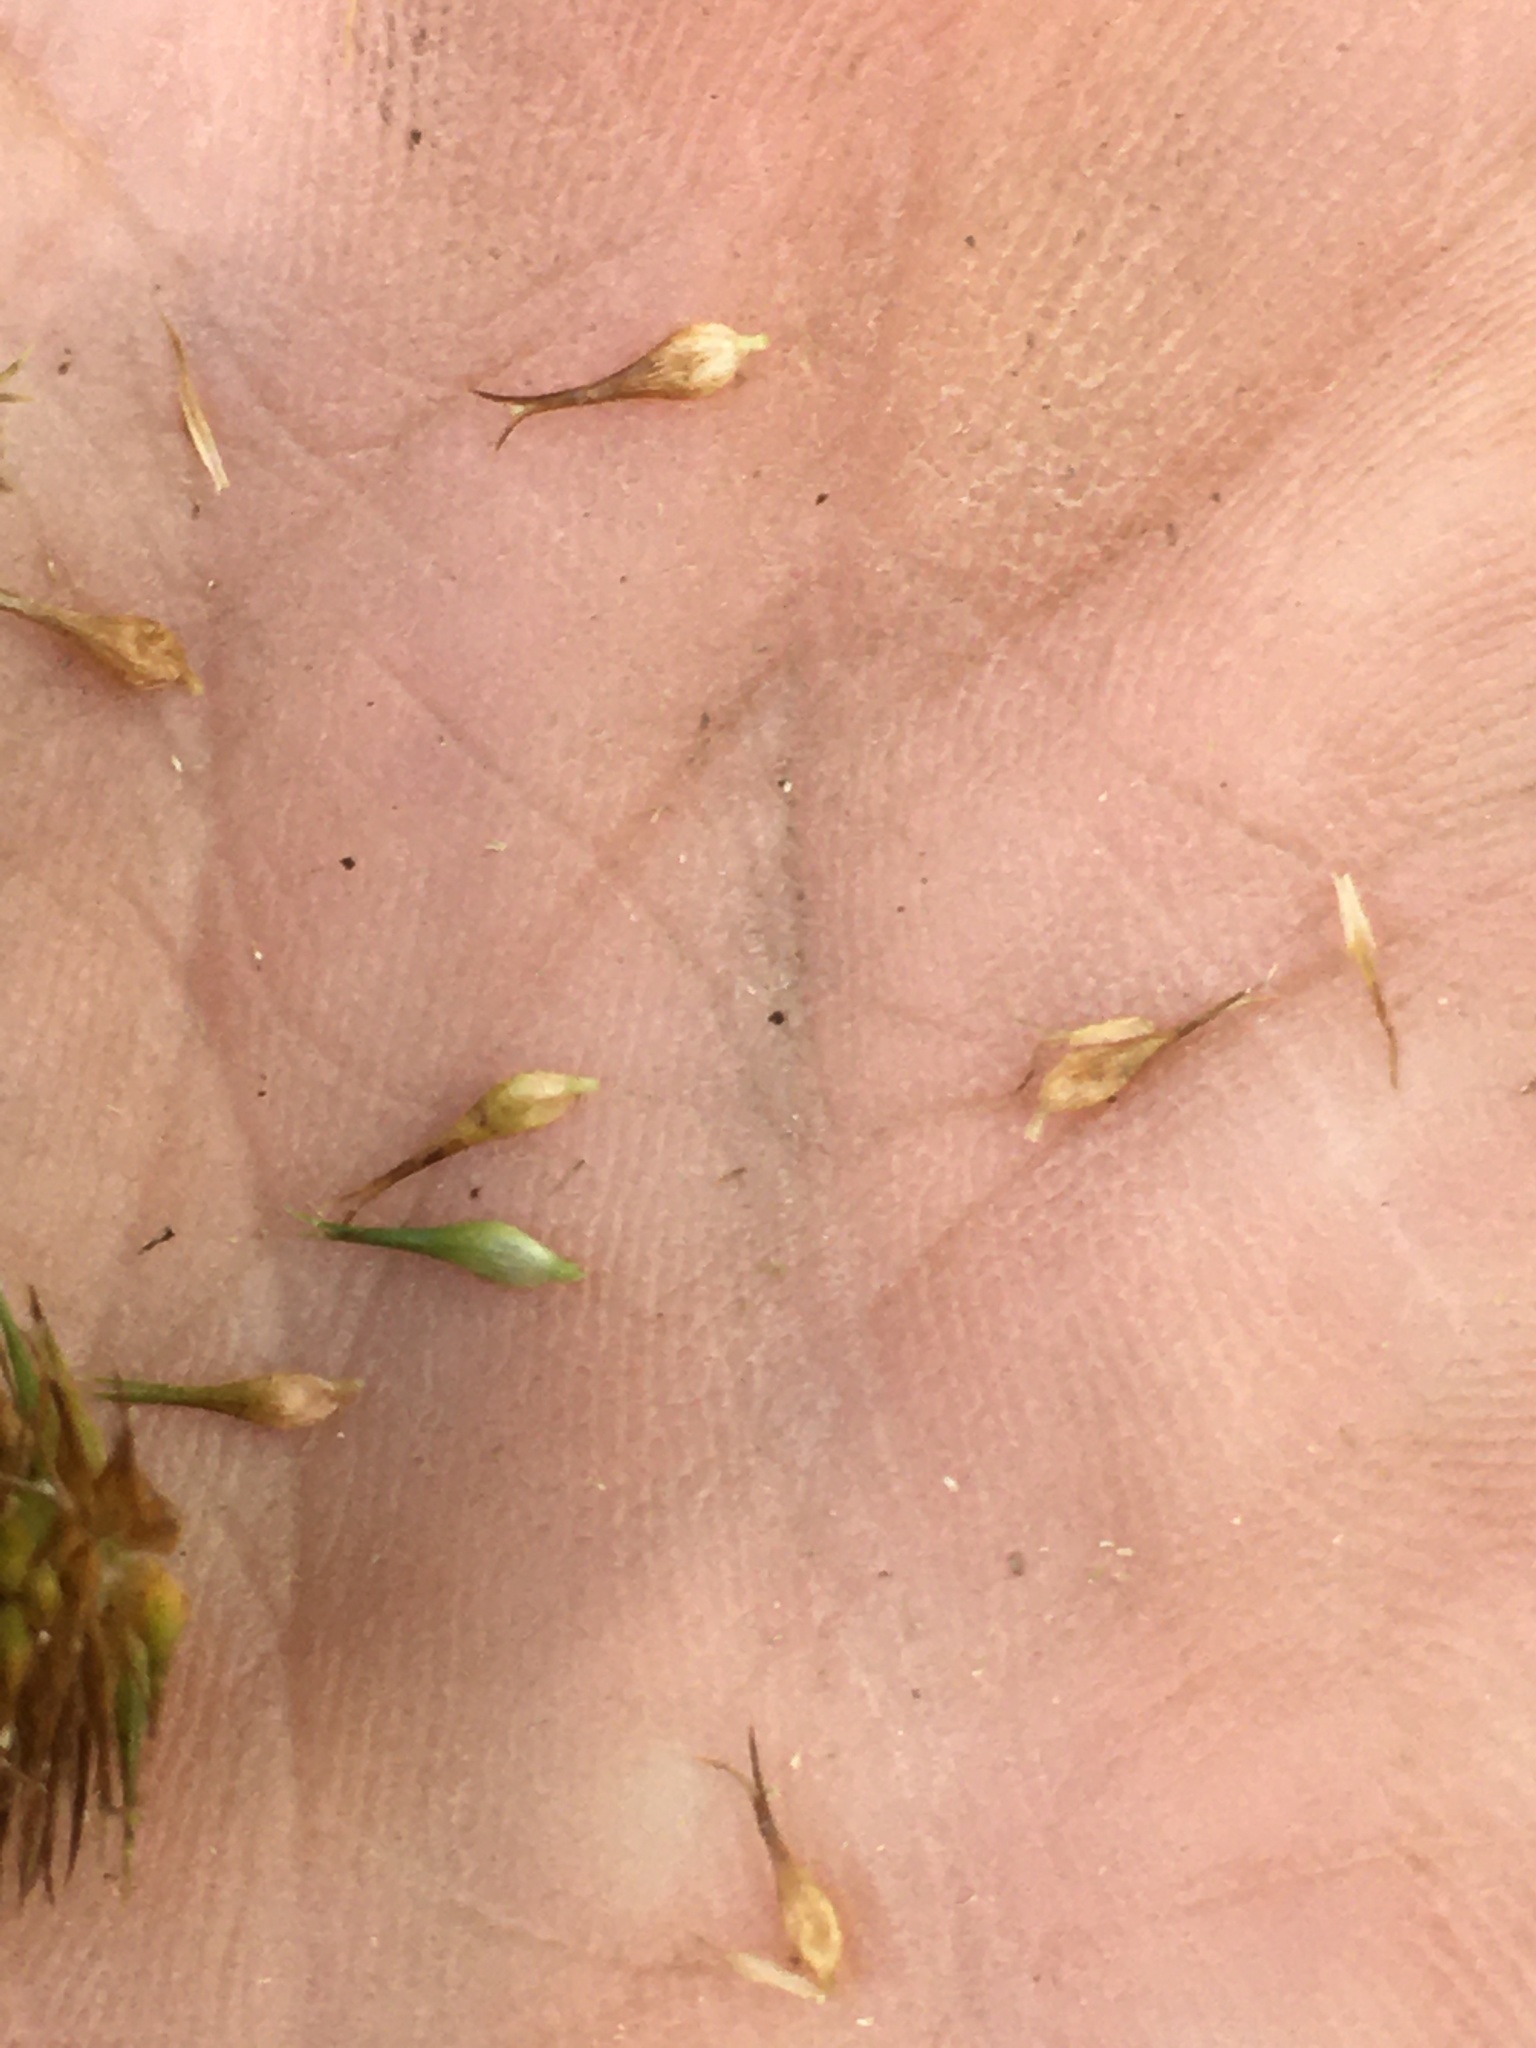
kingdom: Plantae
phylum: Tracheophyta
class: Liliopsida
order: Poales
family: Cyperaceae
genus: Carex
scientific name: Carex comosa
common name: Bristly sedge
